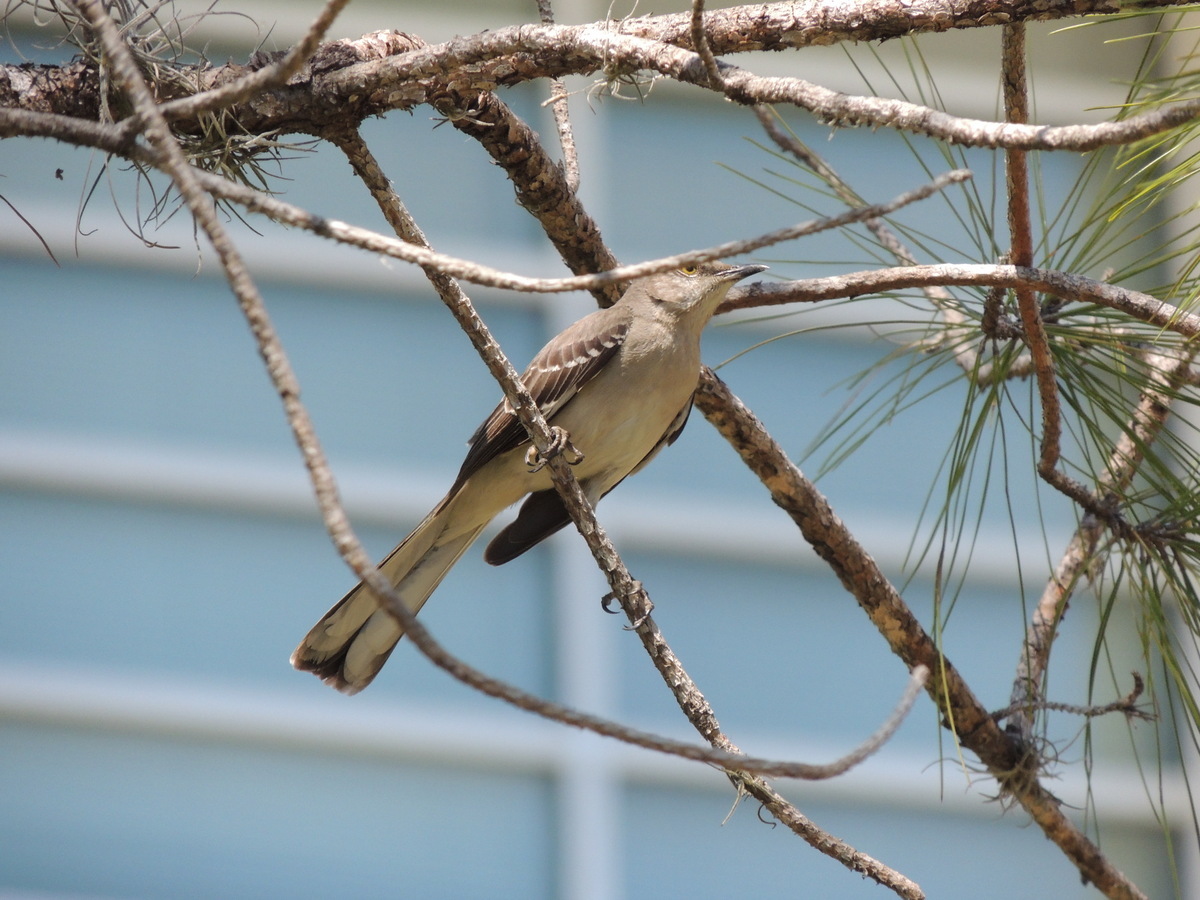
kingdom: Animalia
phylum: Chordata
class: Aves
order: Passeriformes
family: Mimidae
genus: Mimus
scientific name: Mimus polyglottos
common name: Northern mockingbird
